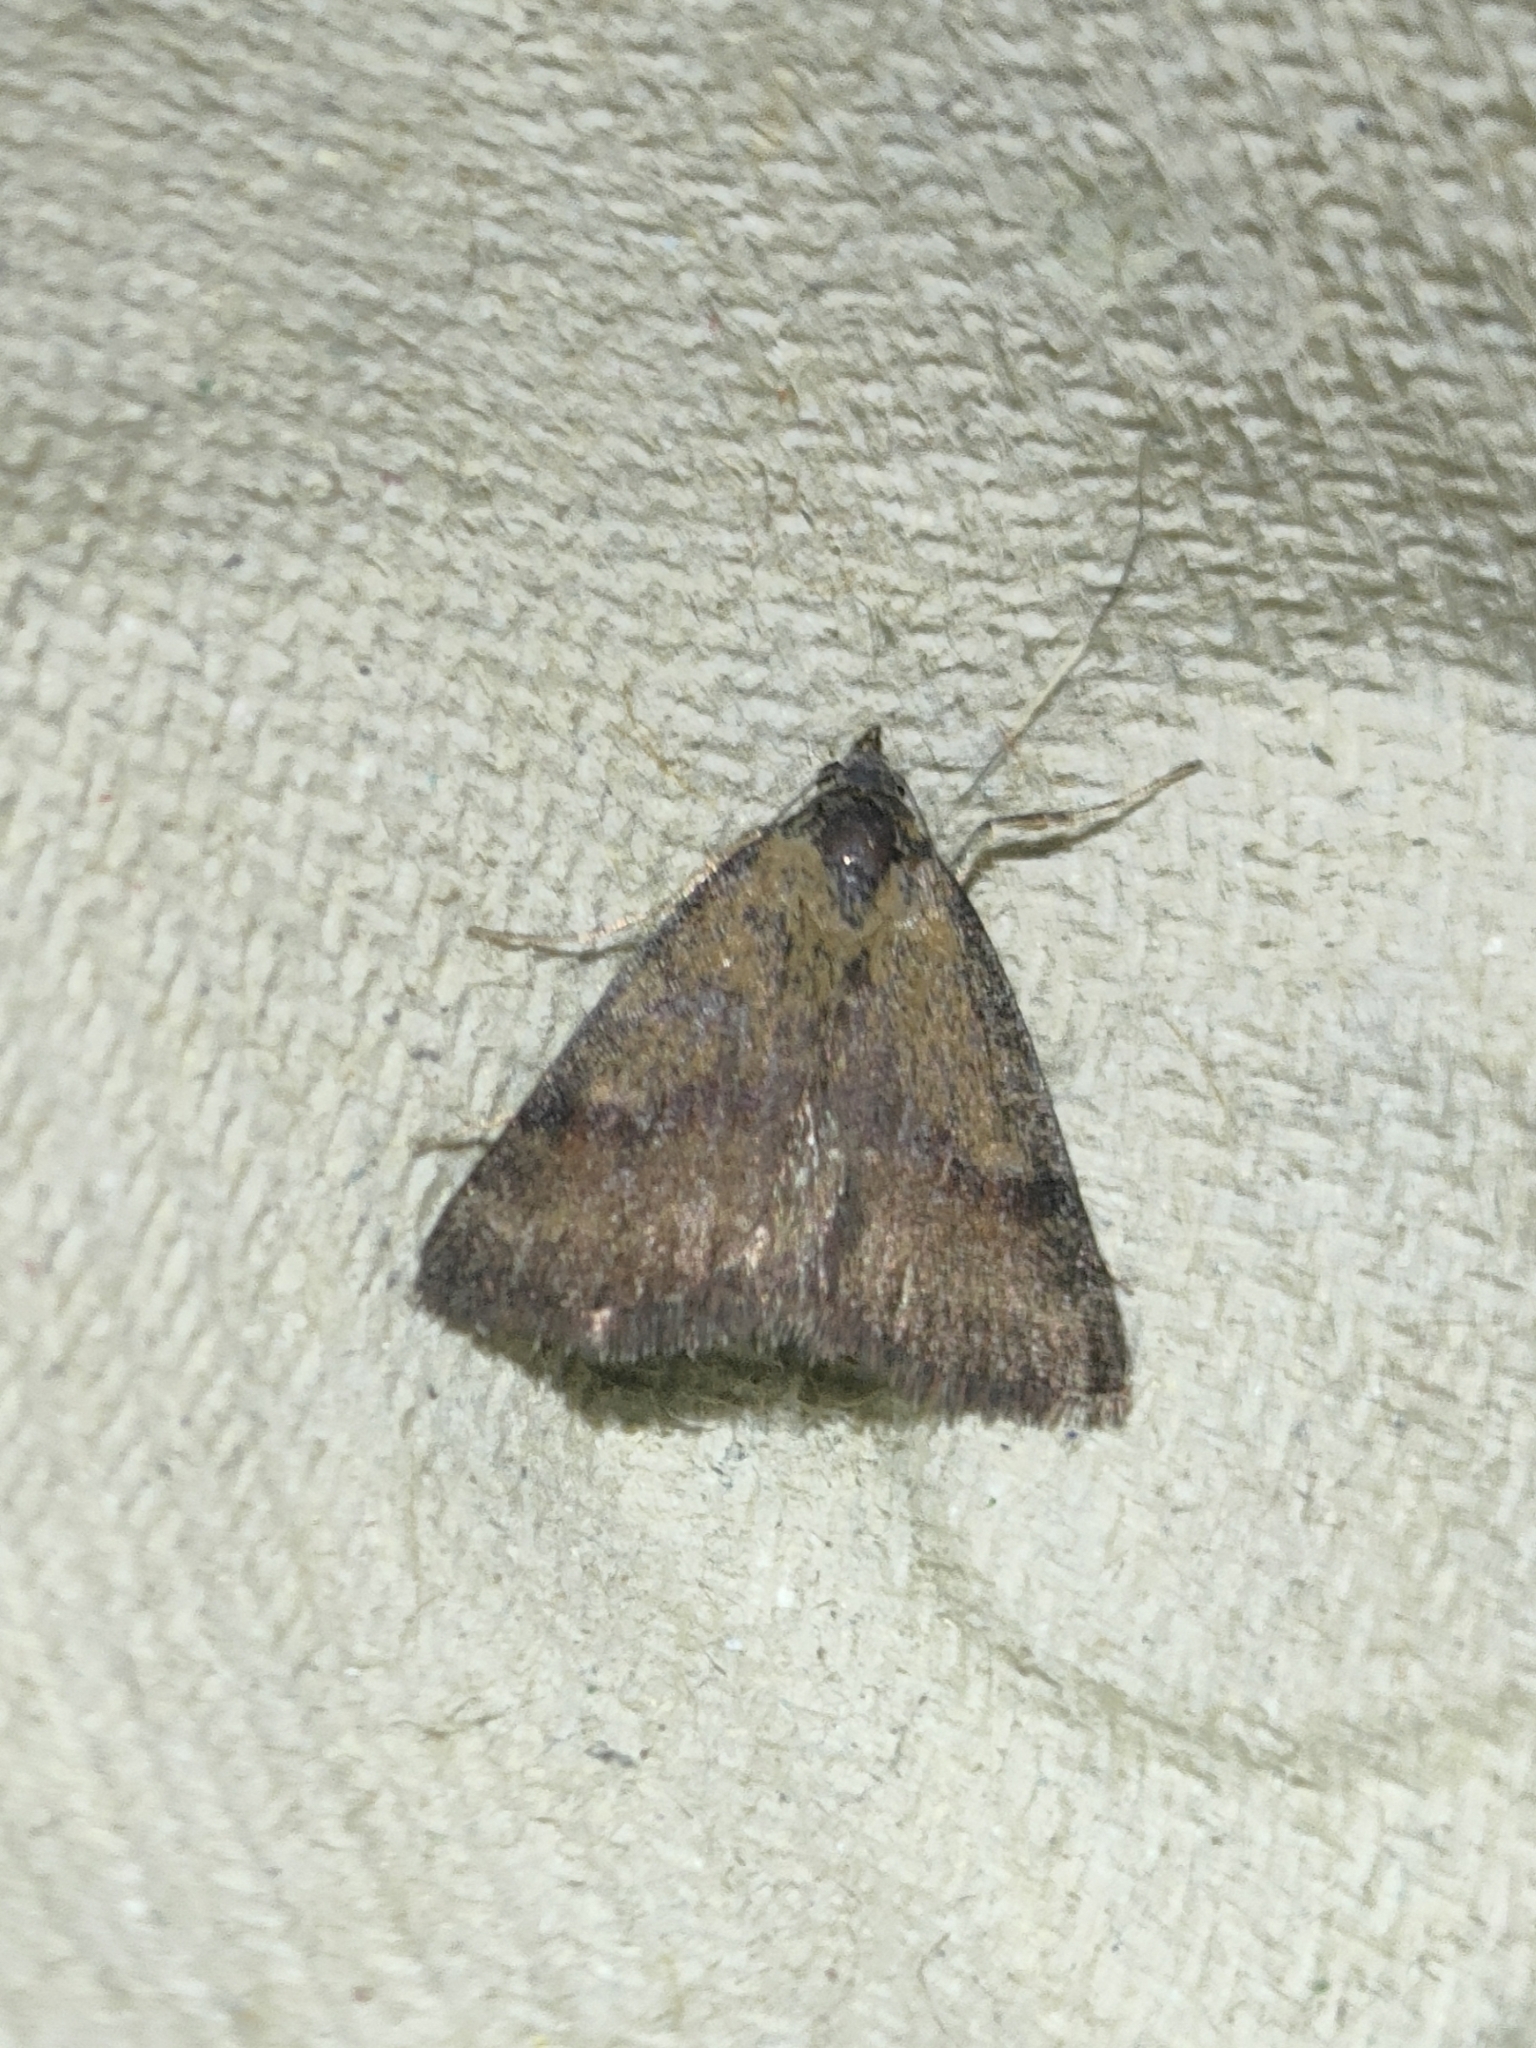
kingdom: Animalia
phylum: Arthropoda
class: Insecta
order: Lepidoptera
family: Erebidae
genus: Phytometra
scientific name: Phytometra sanctiflorentis
